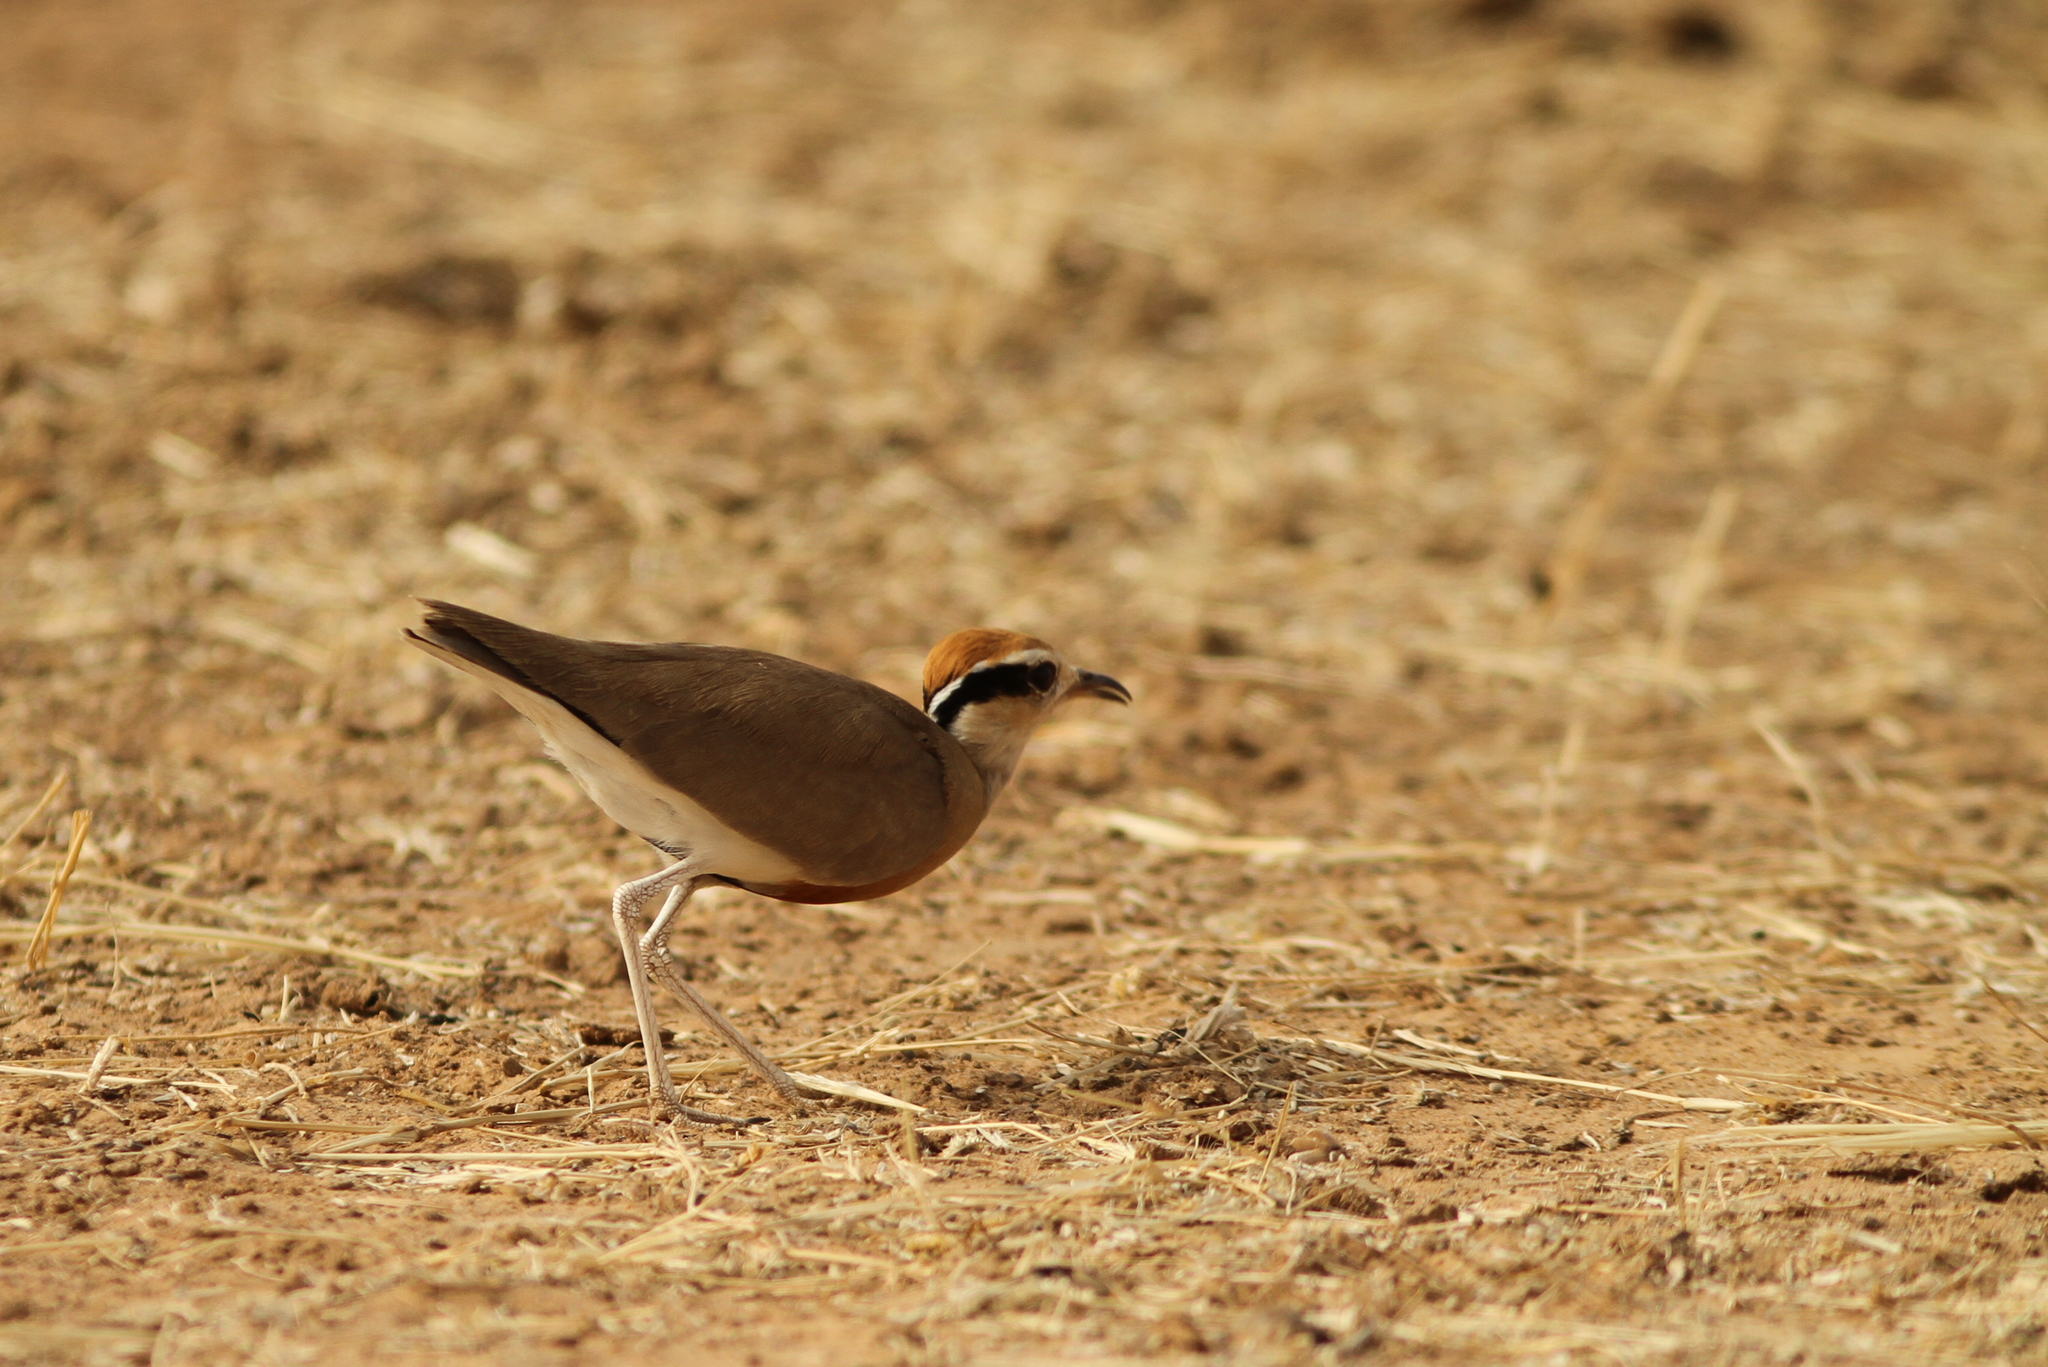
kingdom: Animalia
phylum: Chordata
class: Aves
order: Charadriiformes
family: Glareolidae
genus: Cursorius
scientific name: Cursorius temminckii
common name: Temminck's courser
